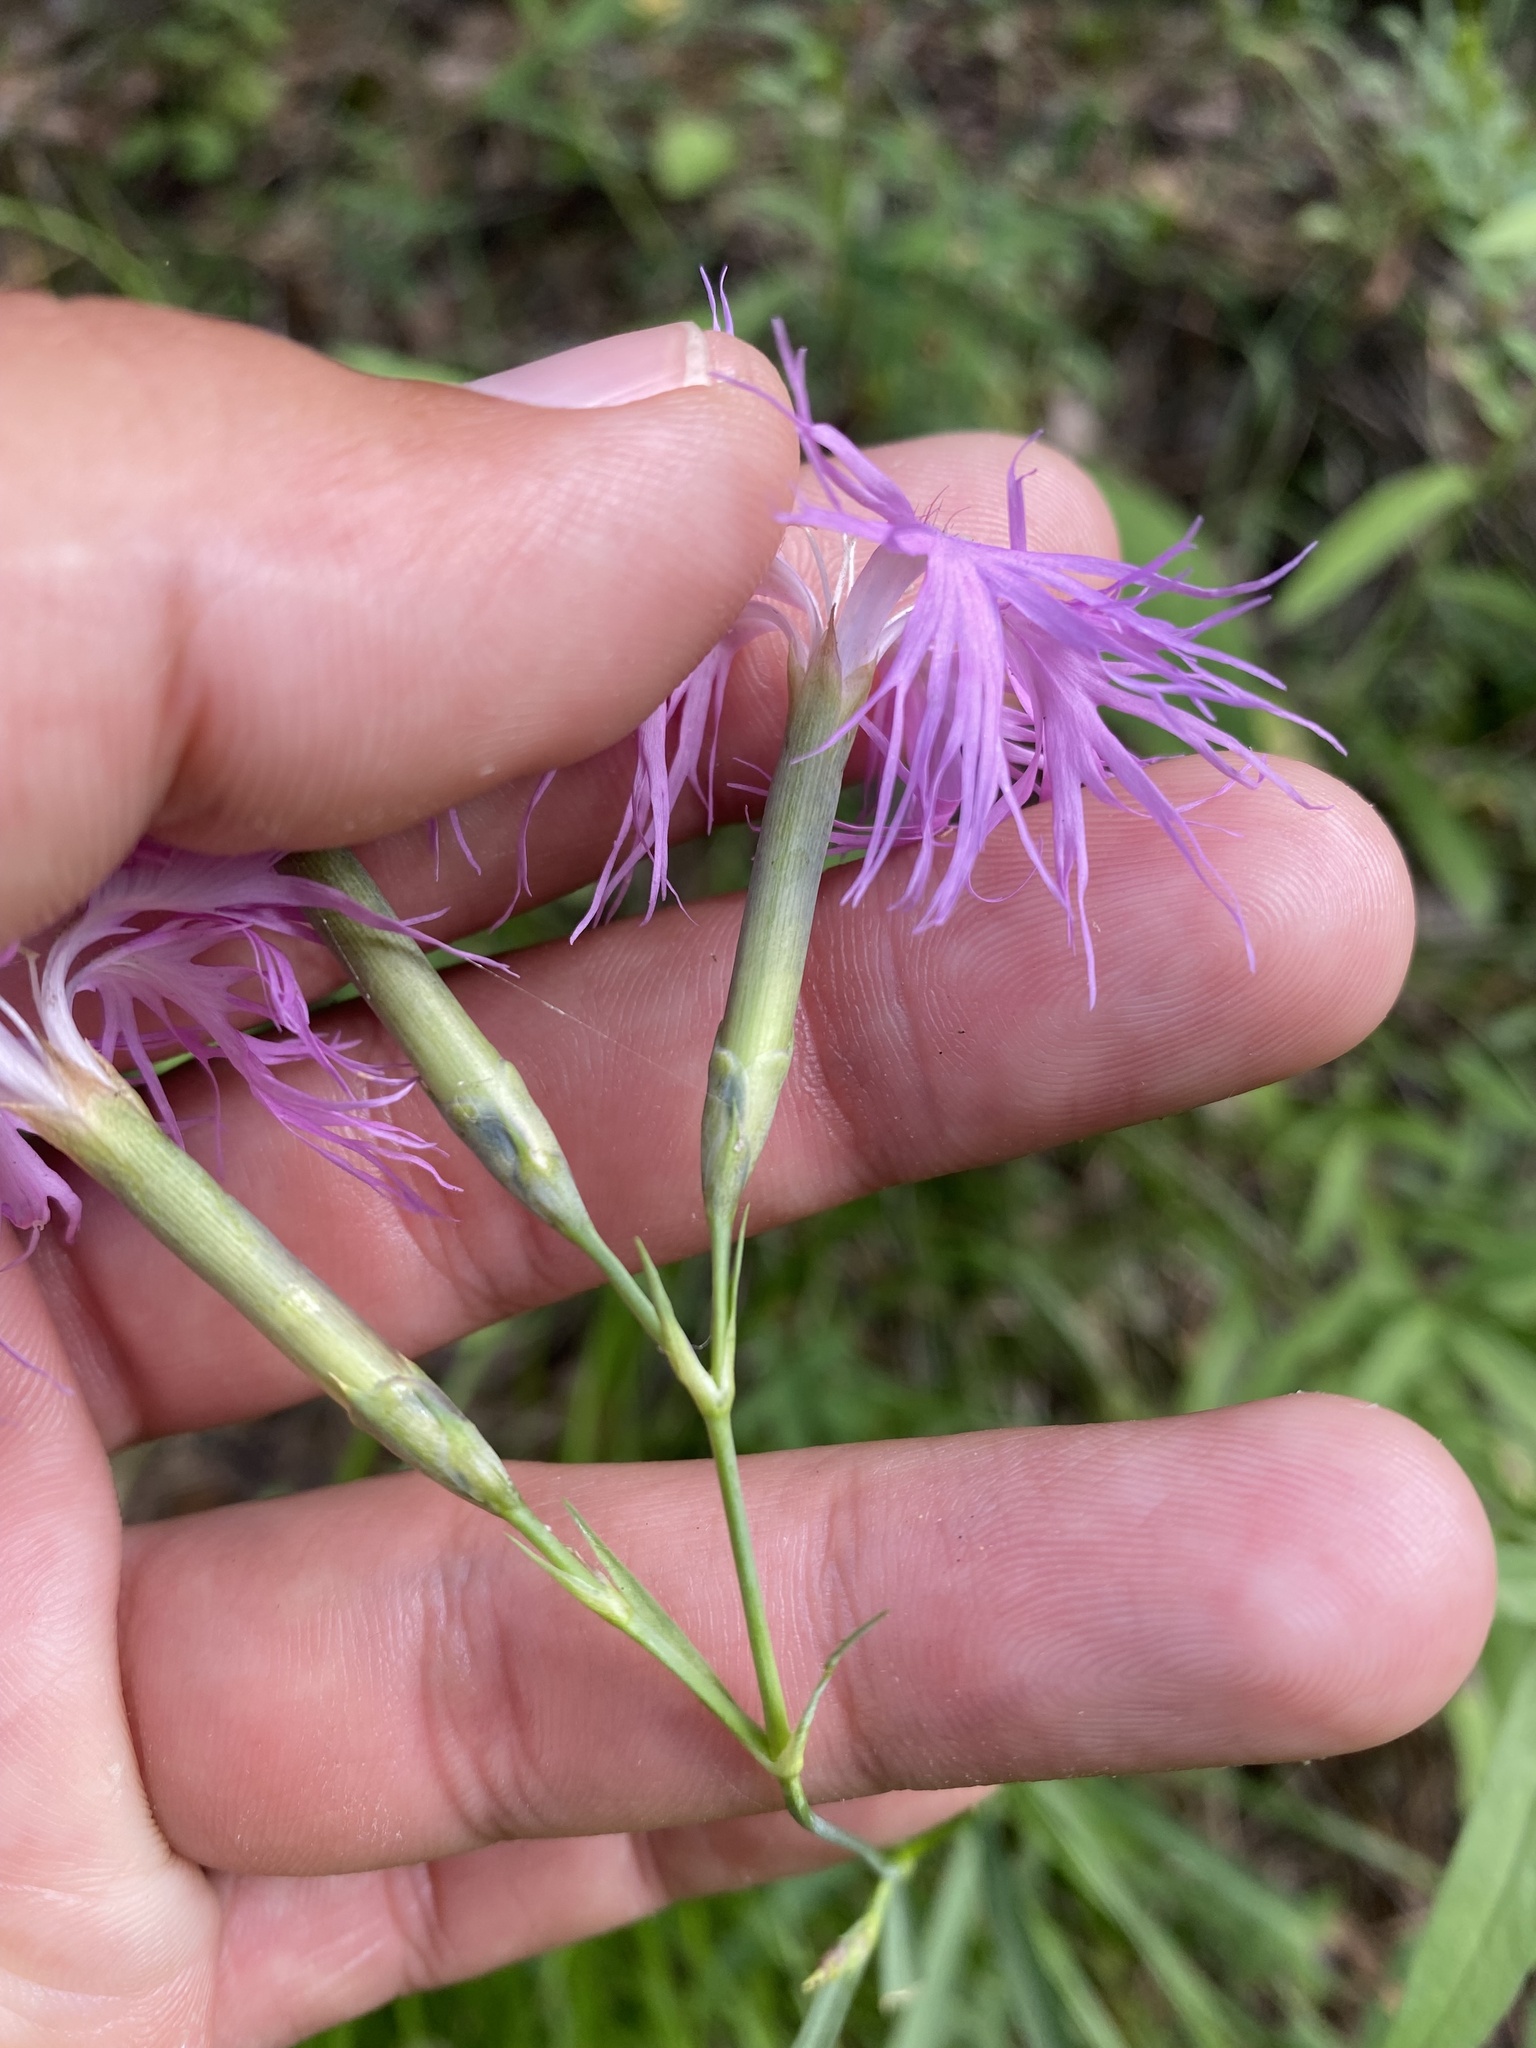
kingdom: Plantae
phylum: Tracheophyta
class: Magnoliopsida
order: Caryophyllales
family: Caryophyllaceae
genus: Dianthus
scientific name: Dianthus superbus
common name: Fringed pink
